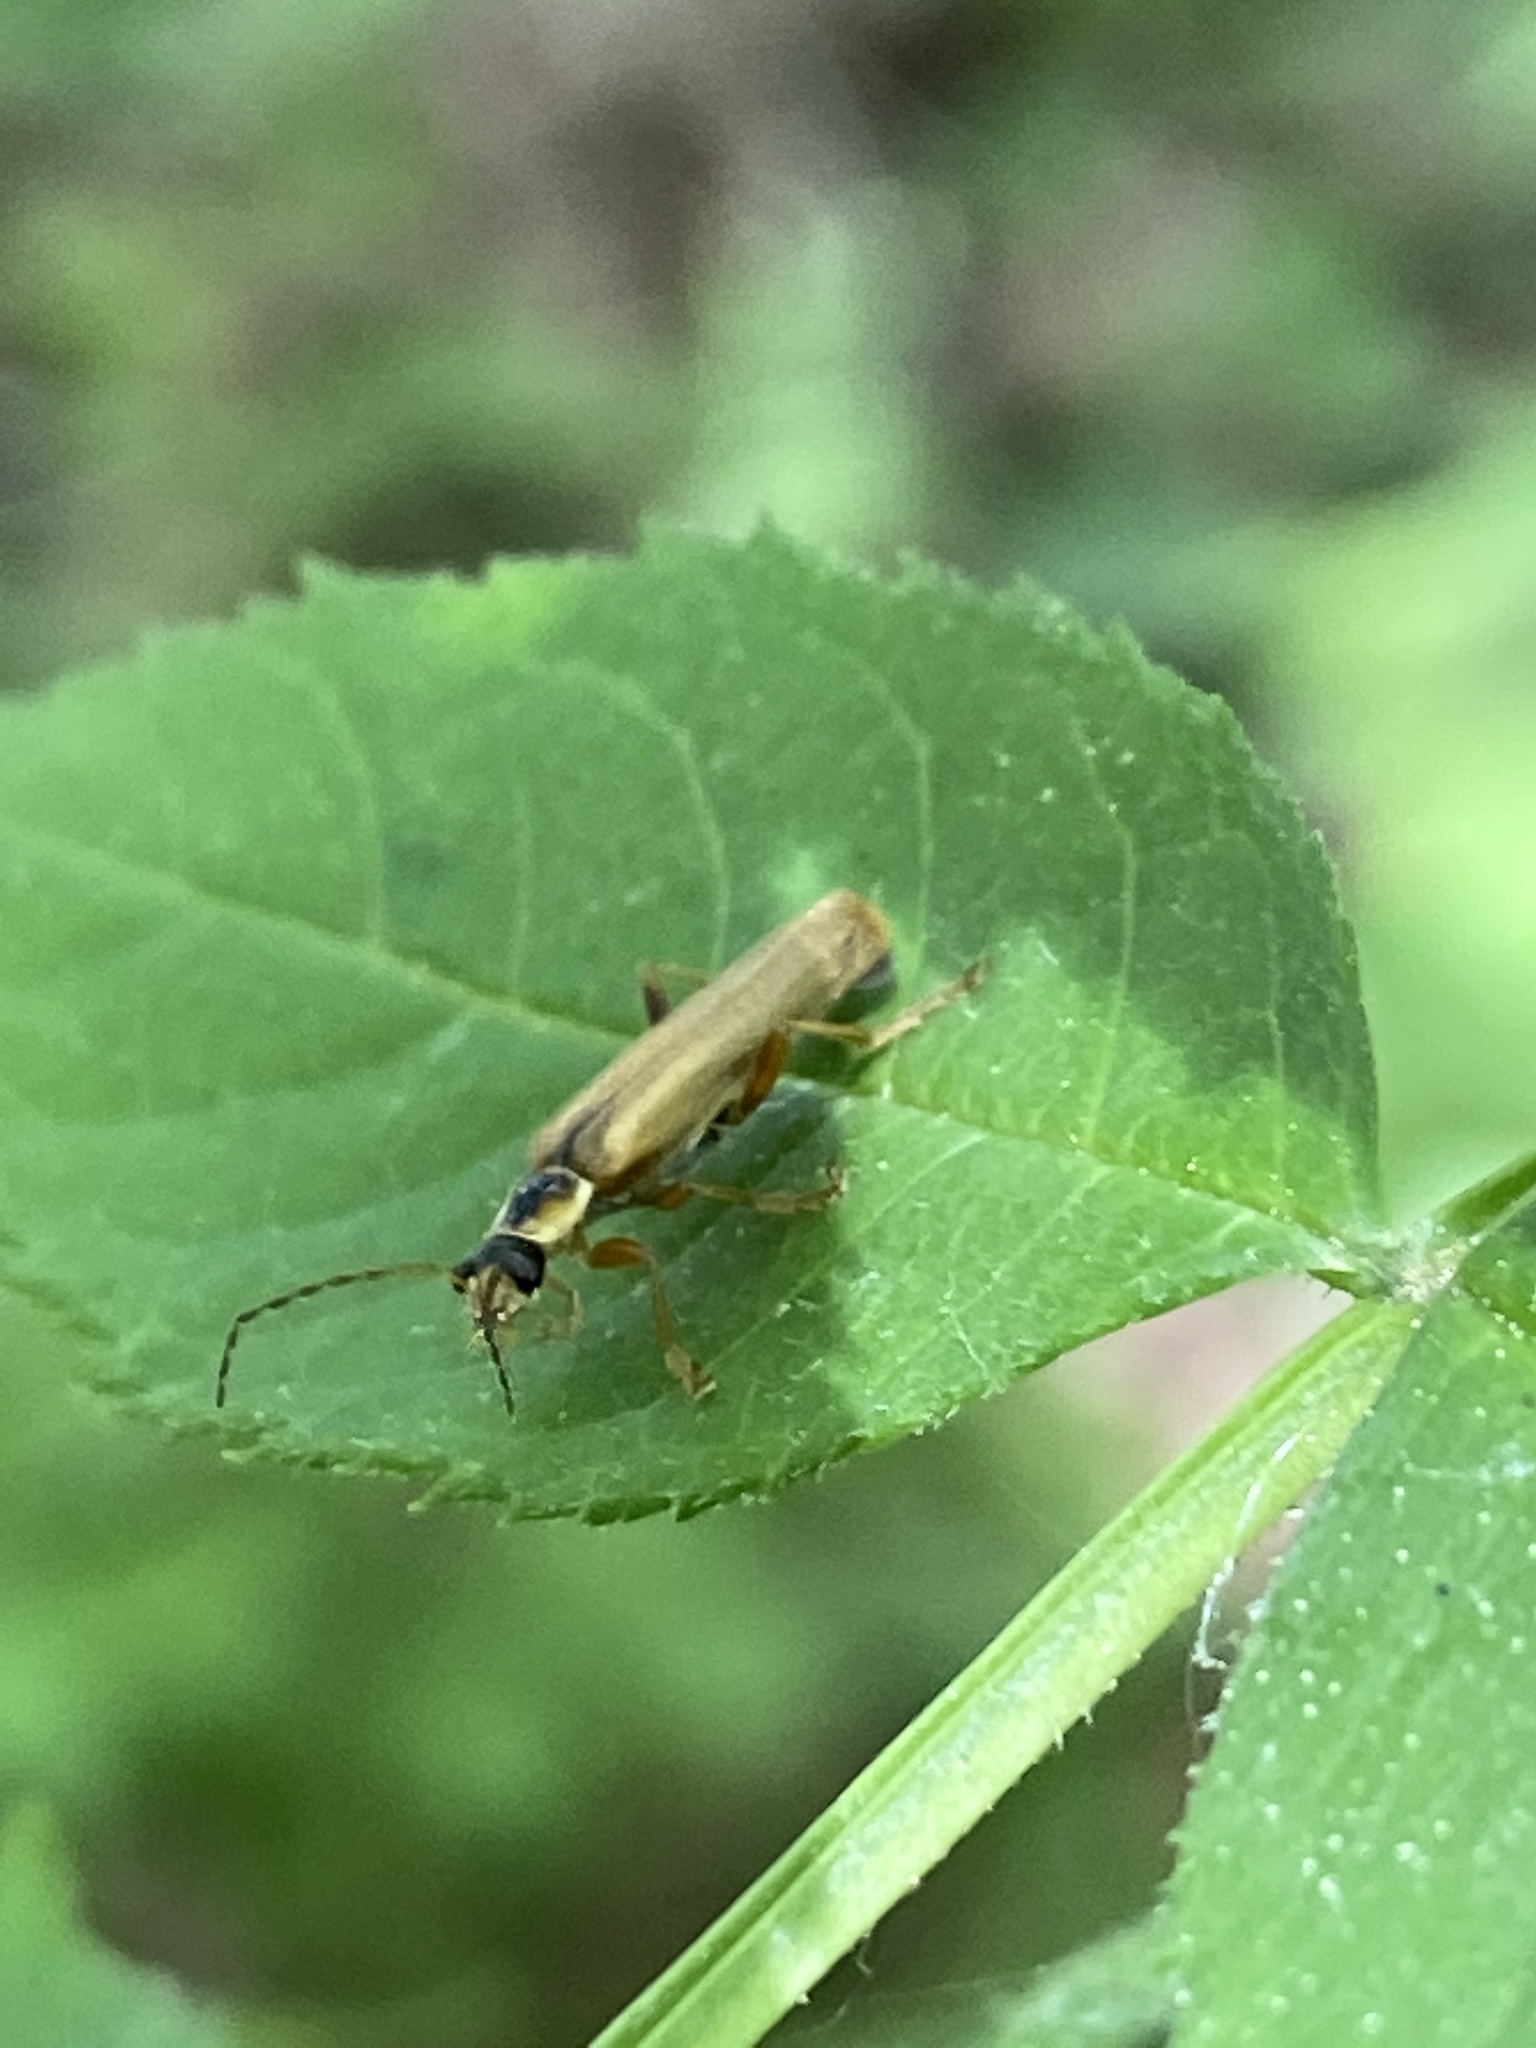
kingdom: Animalia
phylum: Arthropoda
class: Insecta
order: Coleoptera
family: Cantharidae
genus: Cantharis
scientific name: Cantharis decipiens
